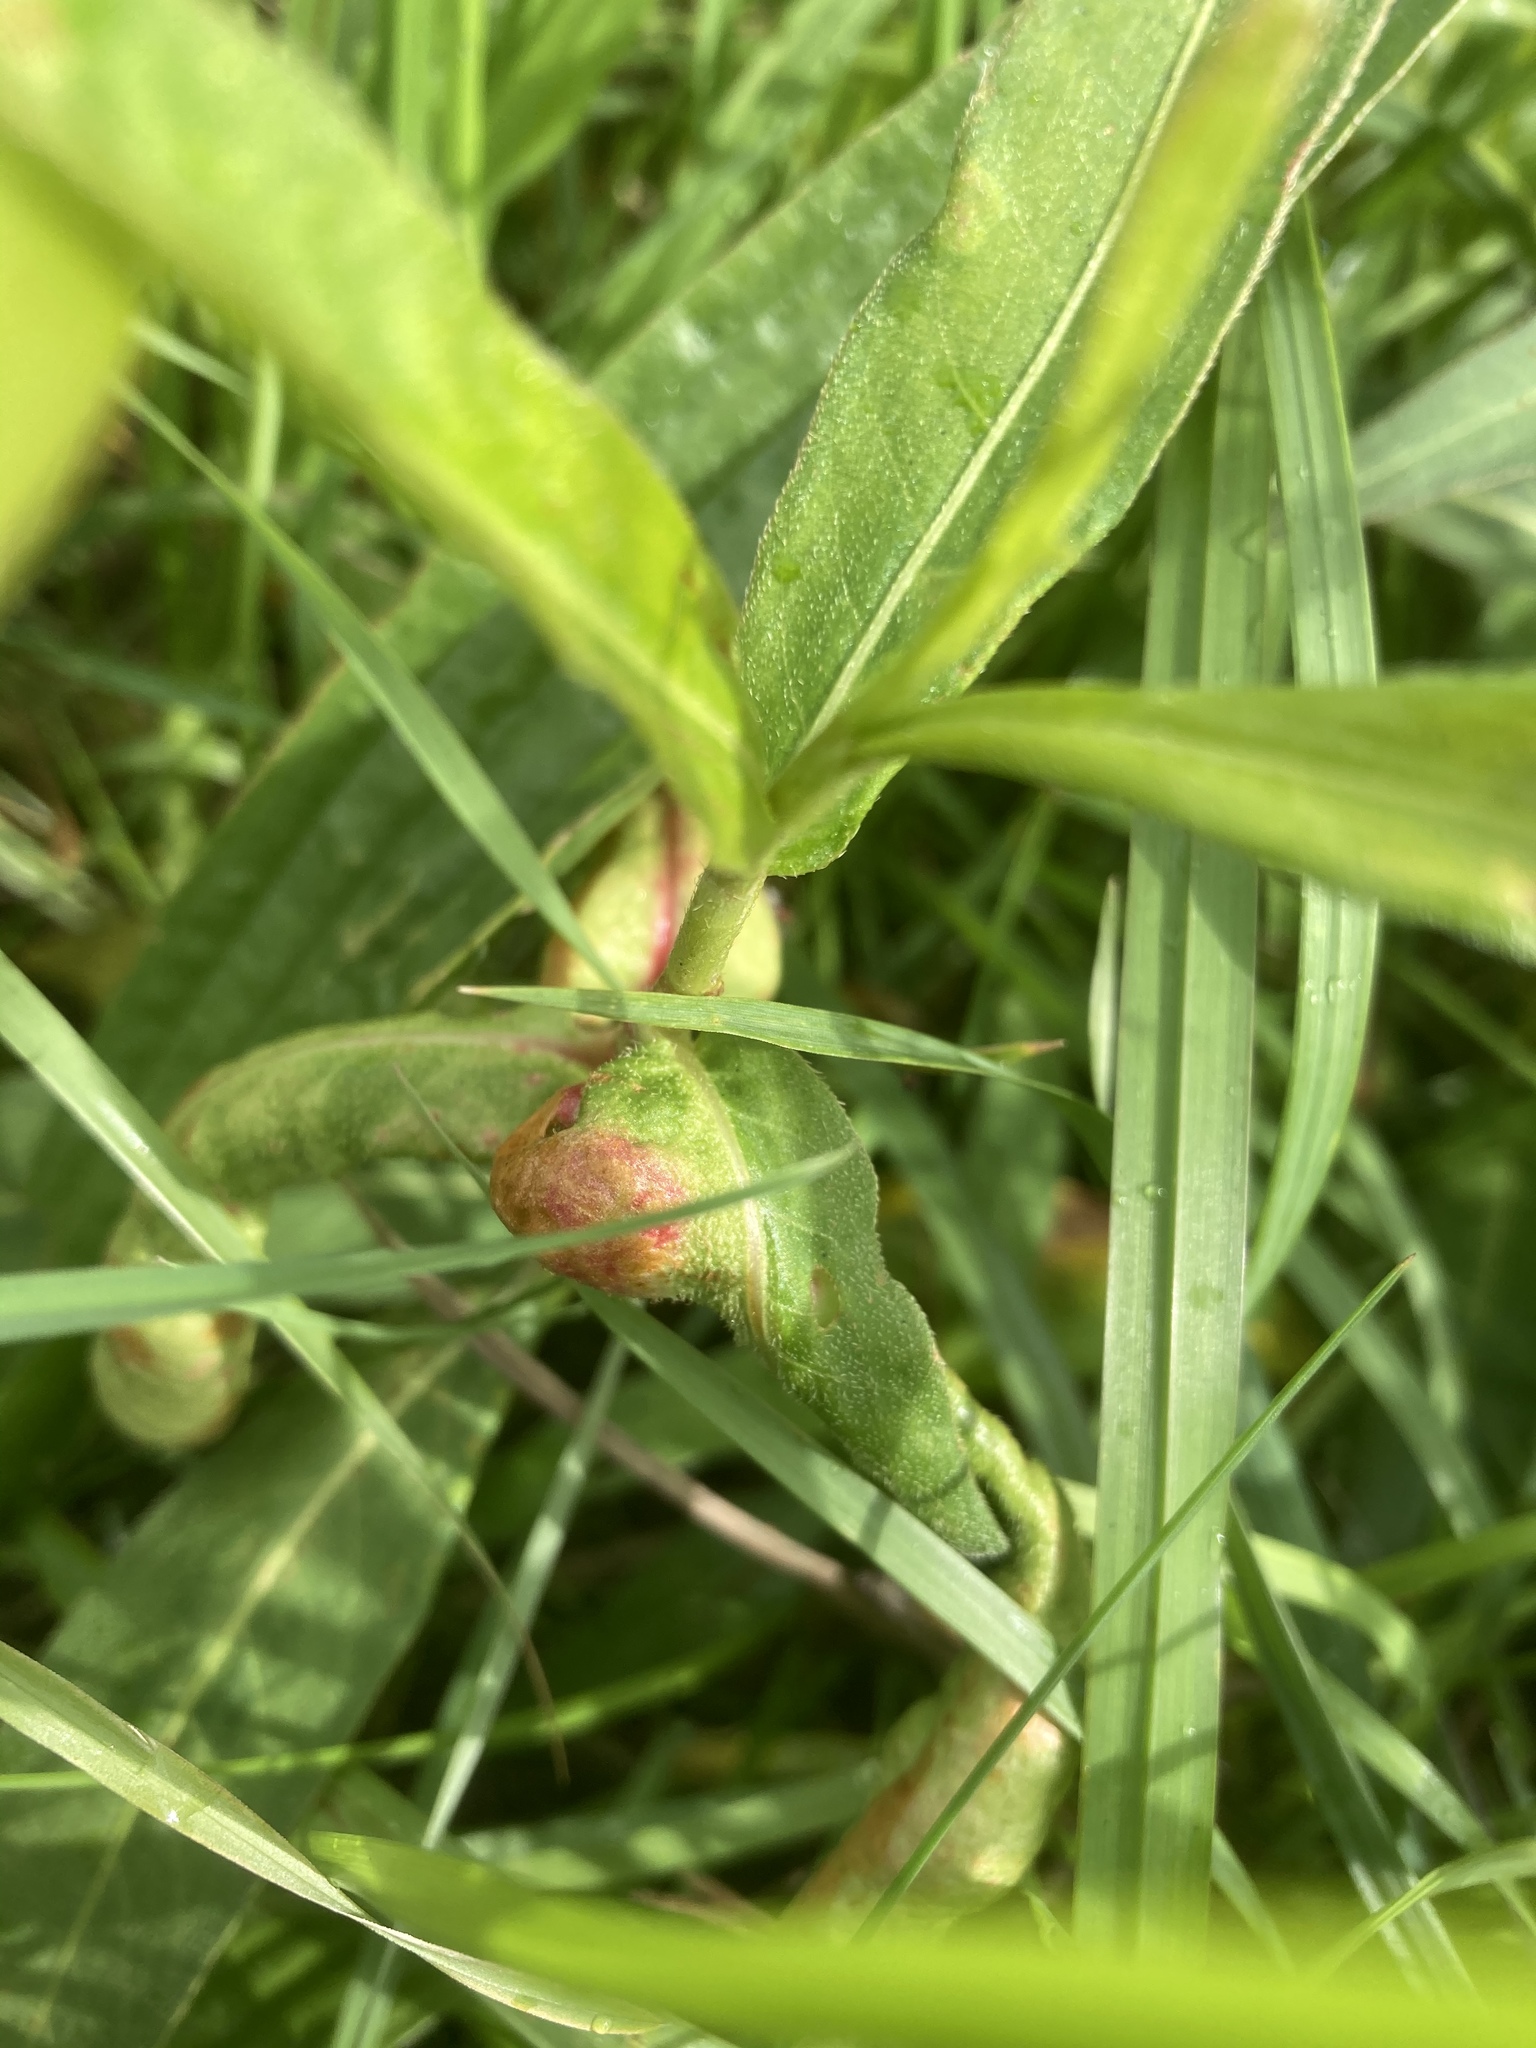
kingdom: Animalia
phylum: Arthropoda
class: Insecta
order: Diptera
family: Cecidomyiidae
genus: Wachtliella
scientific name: Wachtliella persicariae
